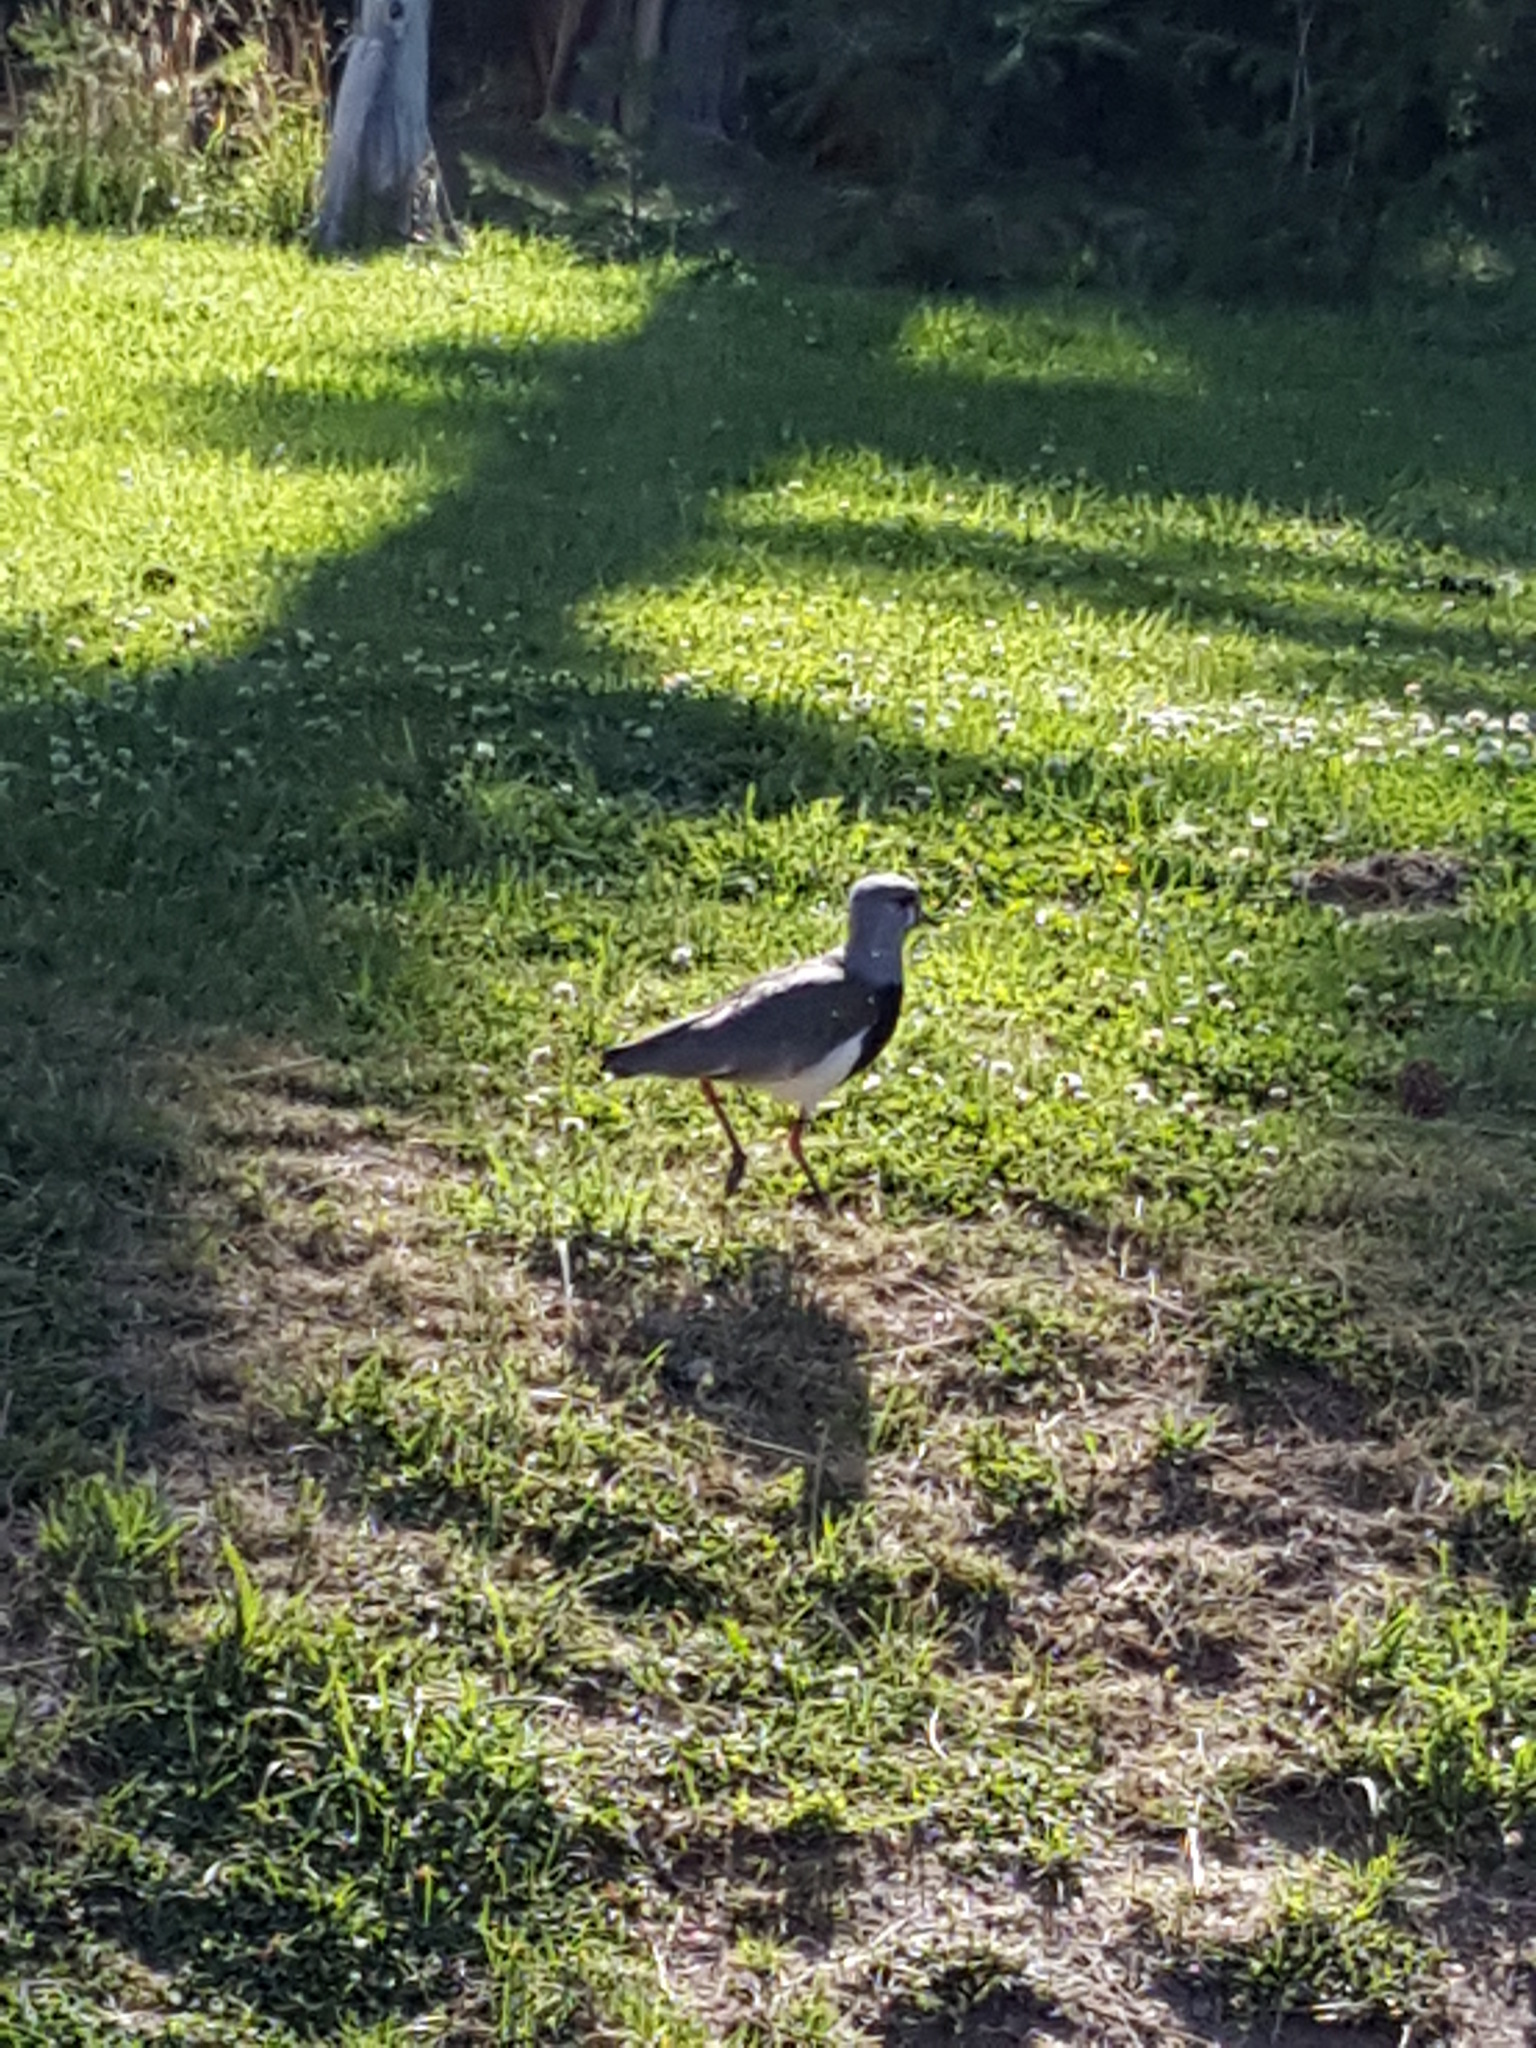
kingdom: Animalia
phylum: Chordata
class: Aves
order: Charadriiformes
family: Charadriidae
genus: Vanellus
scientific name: Vanellus chilensis
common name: Southern lapwing
